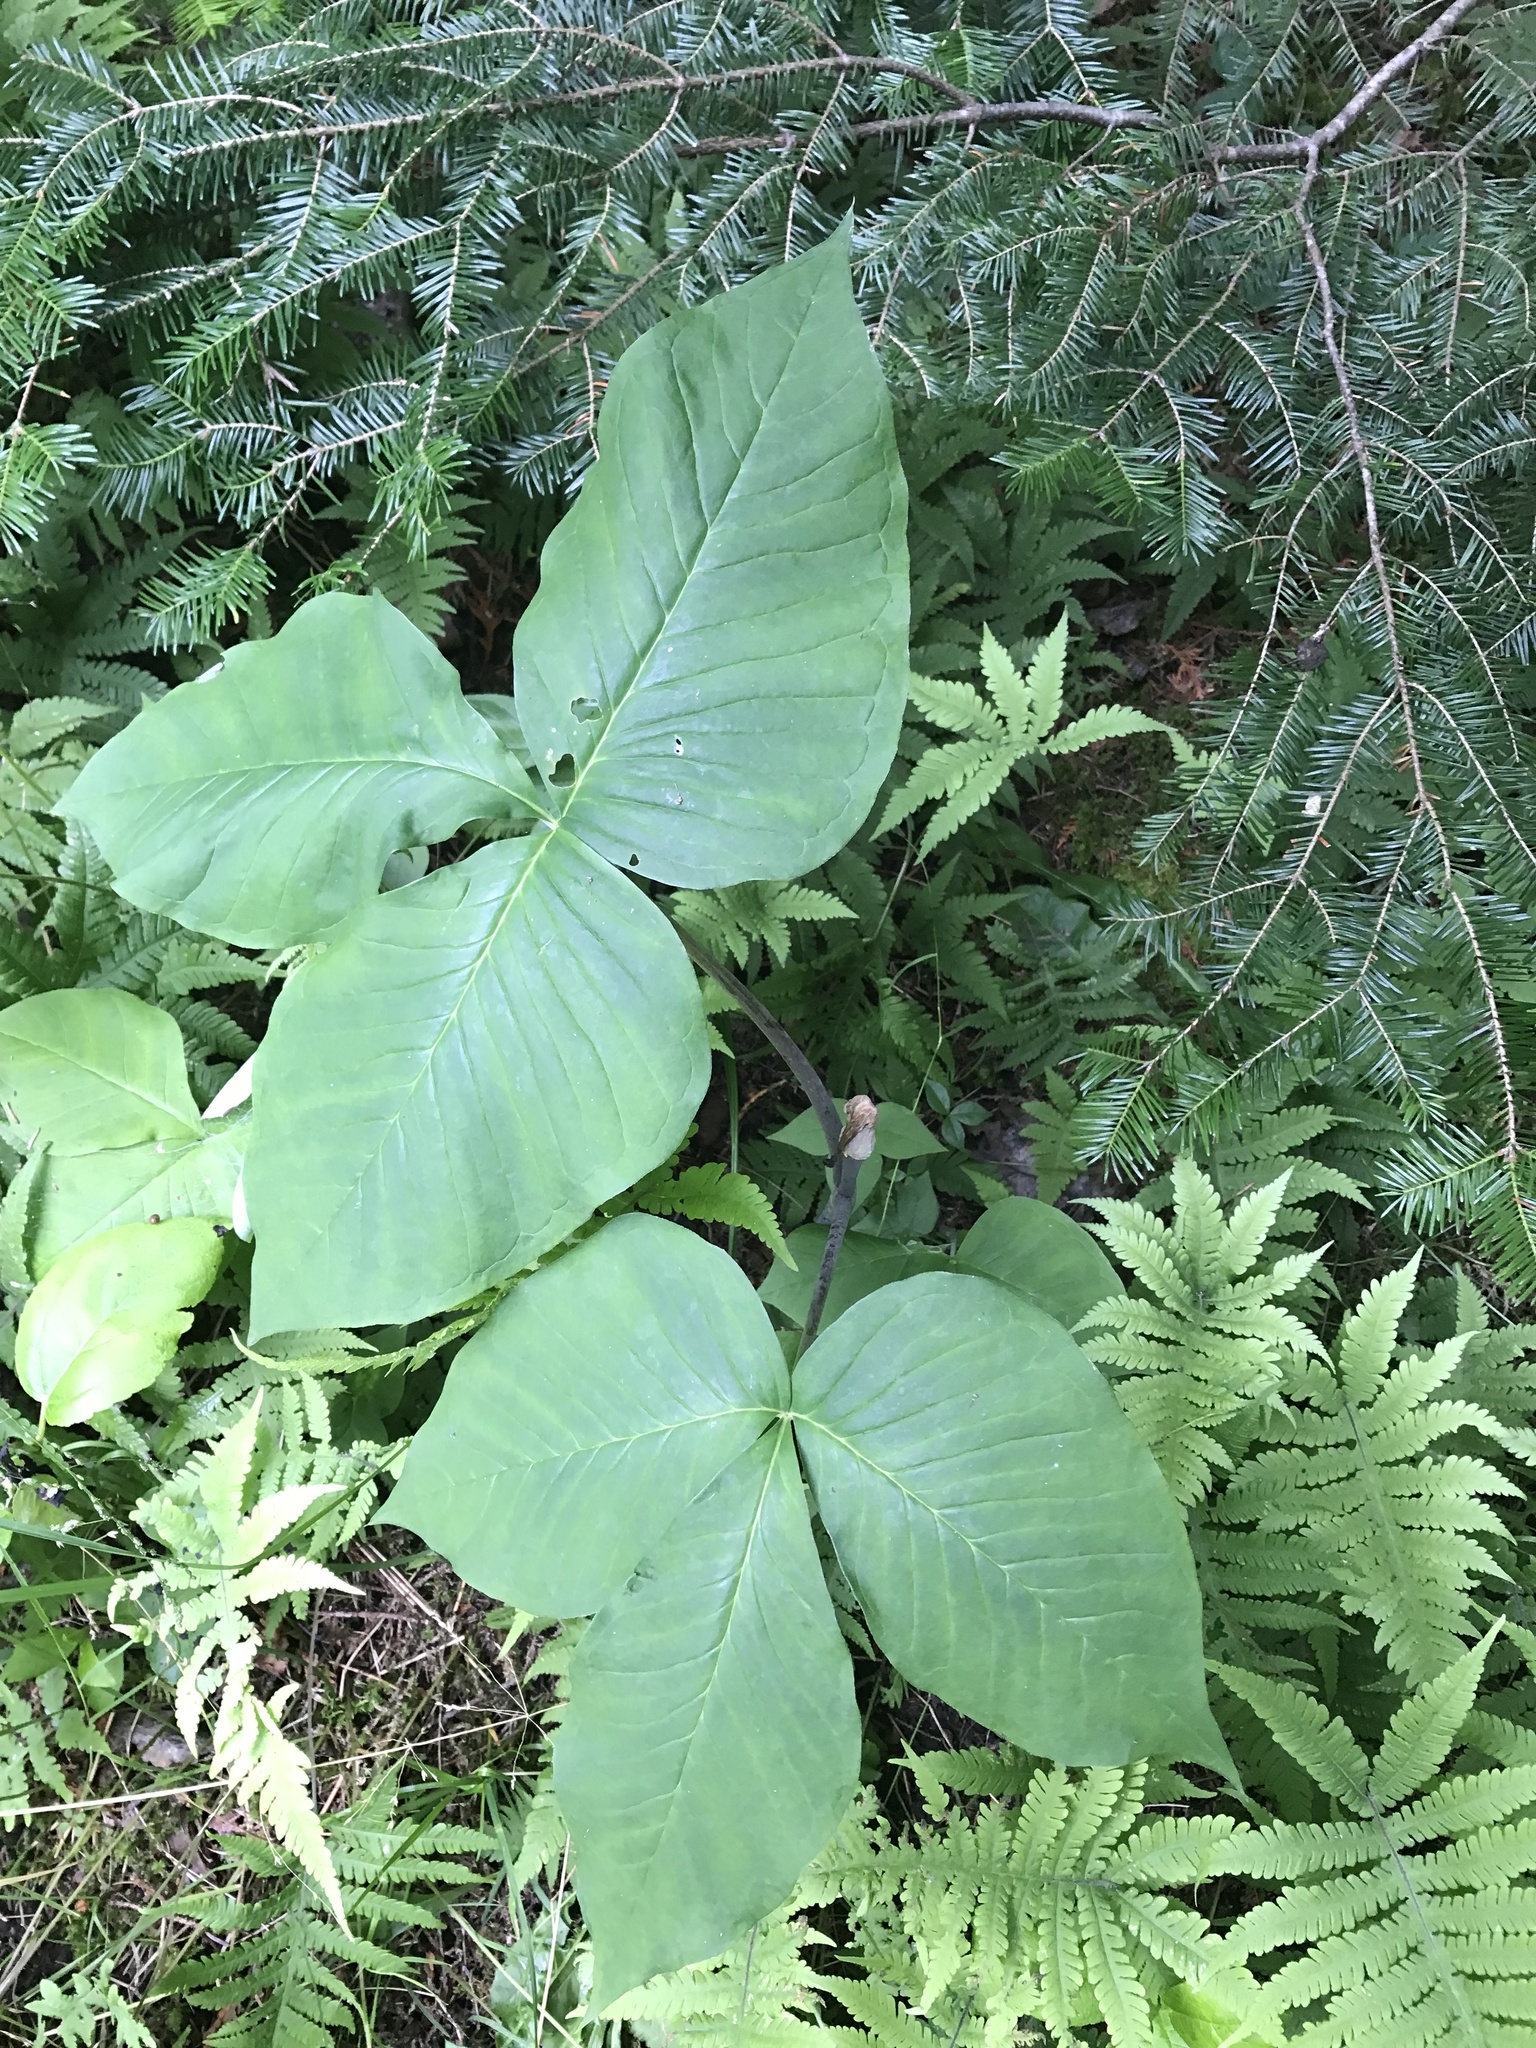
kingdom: Plantae
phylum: Tracheophyta
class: Liliopsida
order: Alismatales
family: Araceae
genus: Arisaema
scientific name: Arisaema triphyllum
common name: Jack-in-the-pulpit
